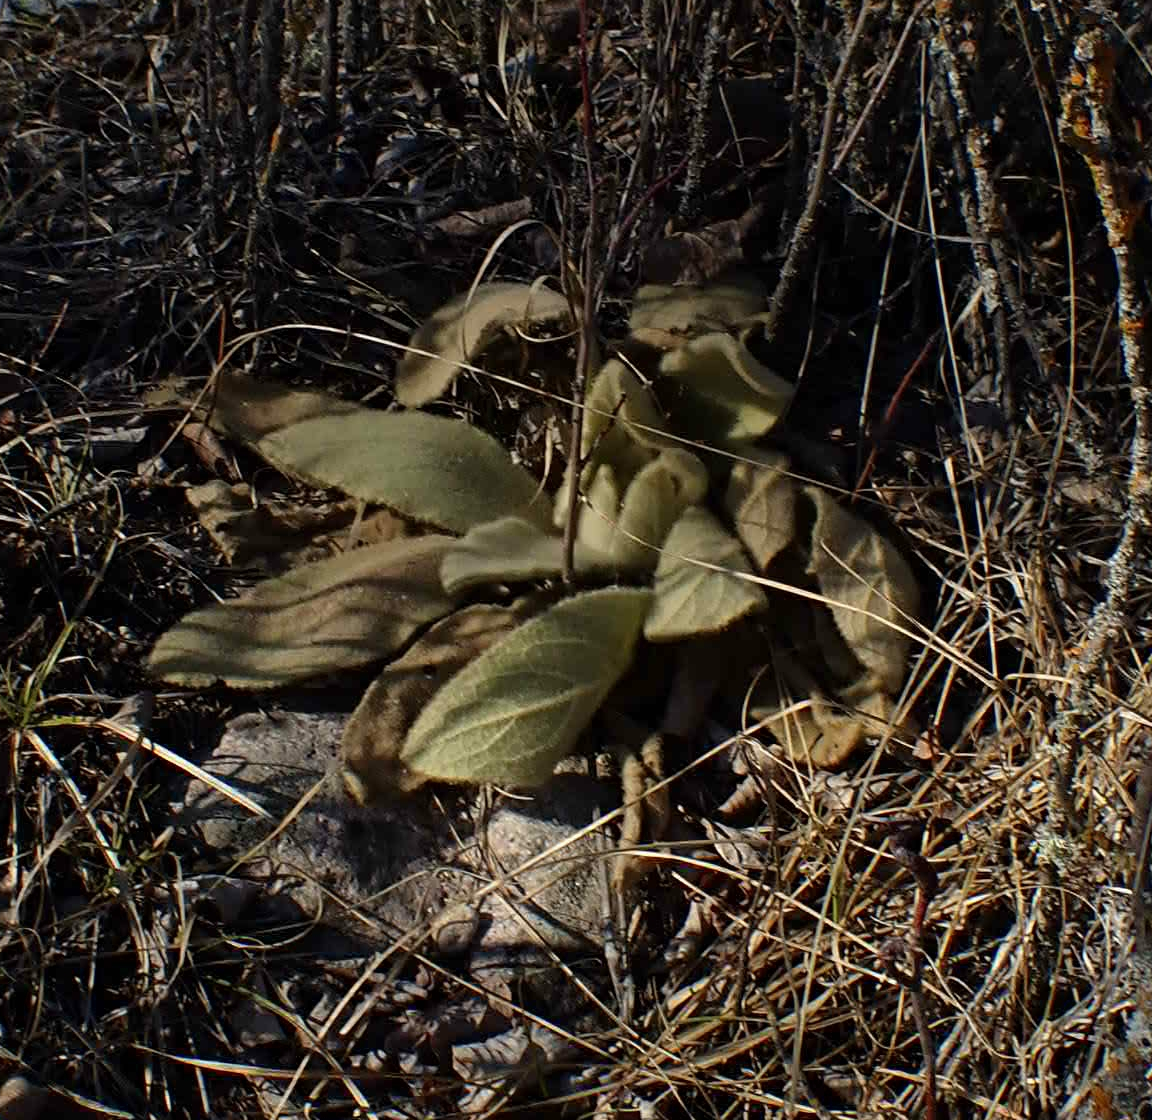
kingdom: Plantae
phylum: Tracheophyta
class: Magnoliopsida
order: Lamiales
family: Scrophulariaceae
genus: Verbascum
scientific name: Verbascum thapsus
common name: Common mullein
